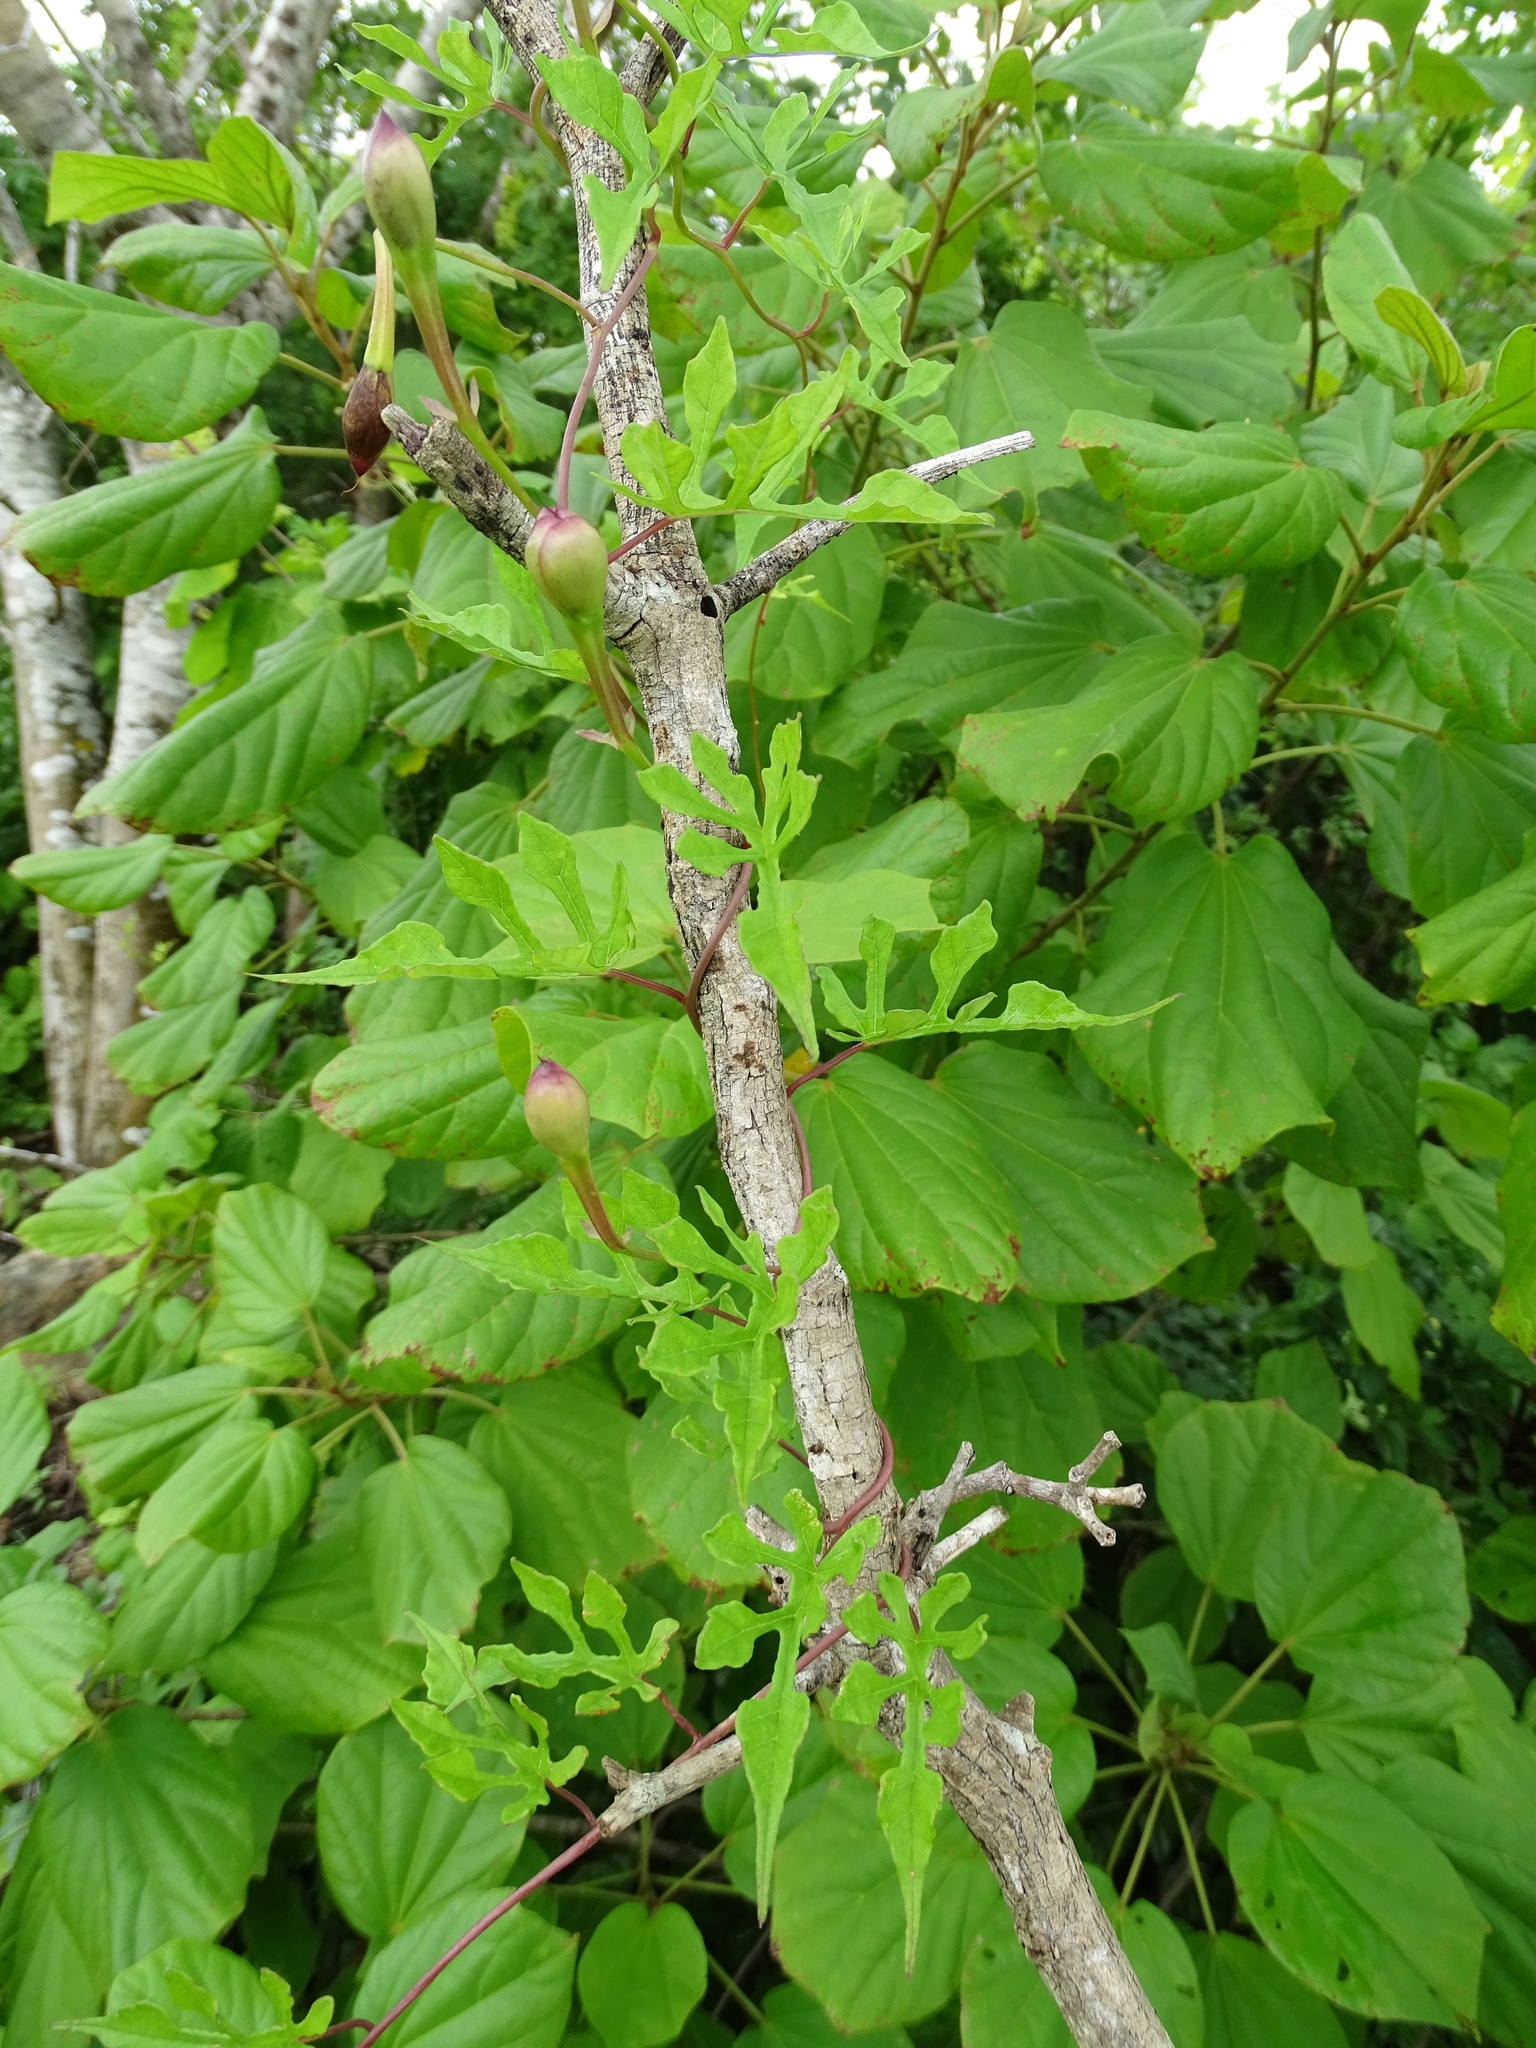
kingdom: Plantae
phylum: Tracheophyta
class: Magnoliopsida
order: Solanales
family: Convolvulaceae
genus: Operculina
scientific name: Operculina pinnatifida
